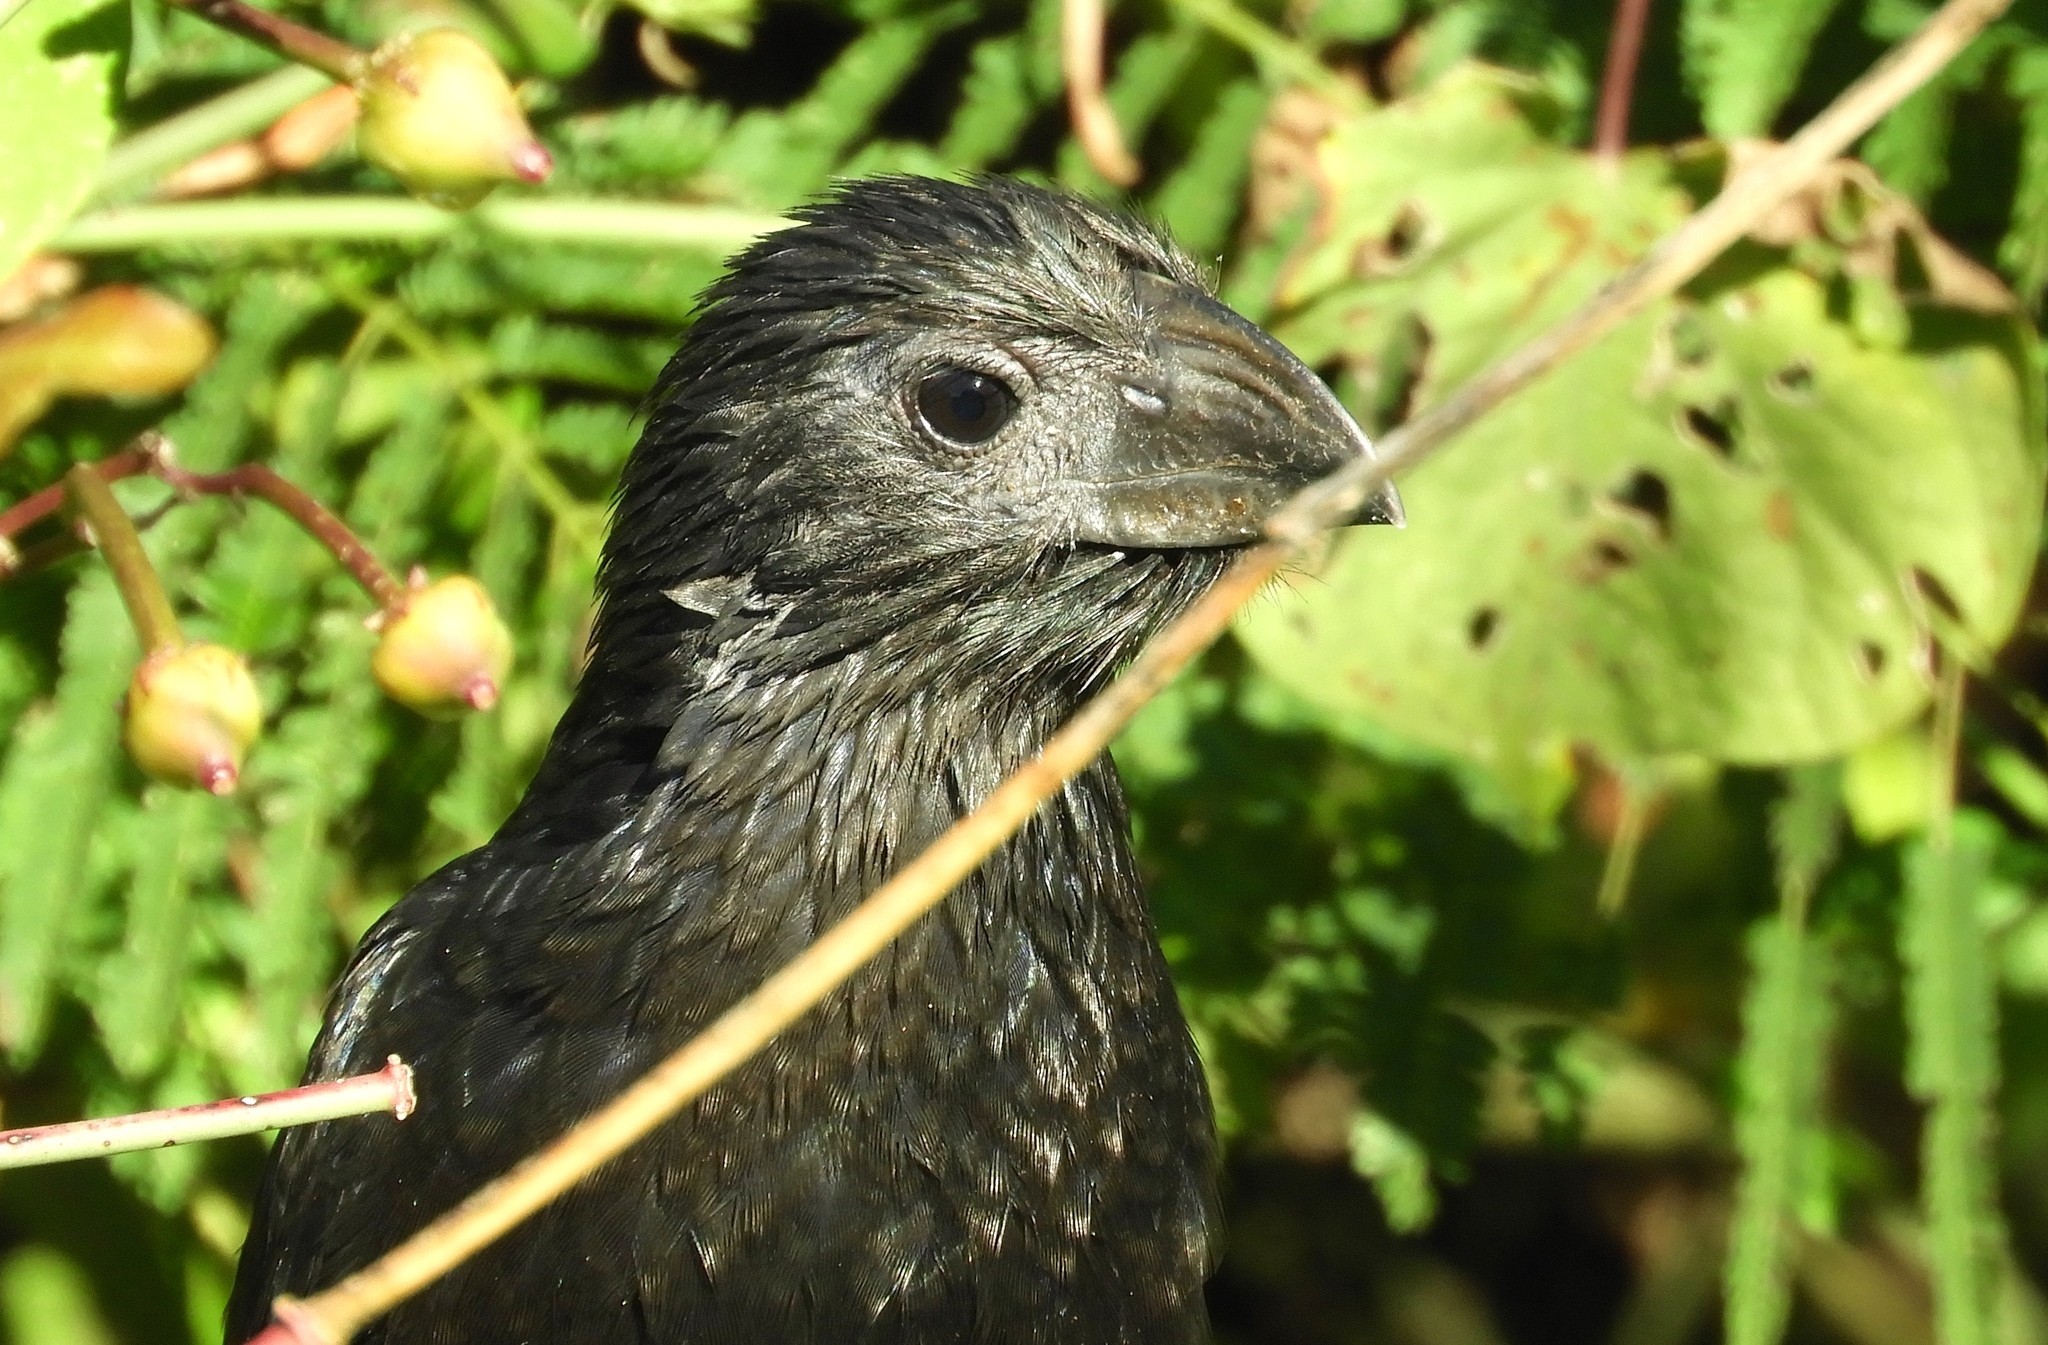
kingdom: Animalia
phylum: Chordata
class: Aves
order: Cuculiformes
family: Cuculidae
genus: Crotophaga
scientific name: Crotophaga sulcirostris
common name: Groove-billed ani
